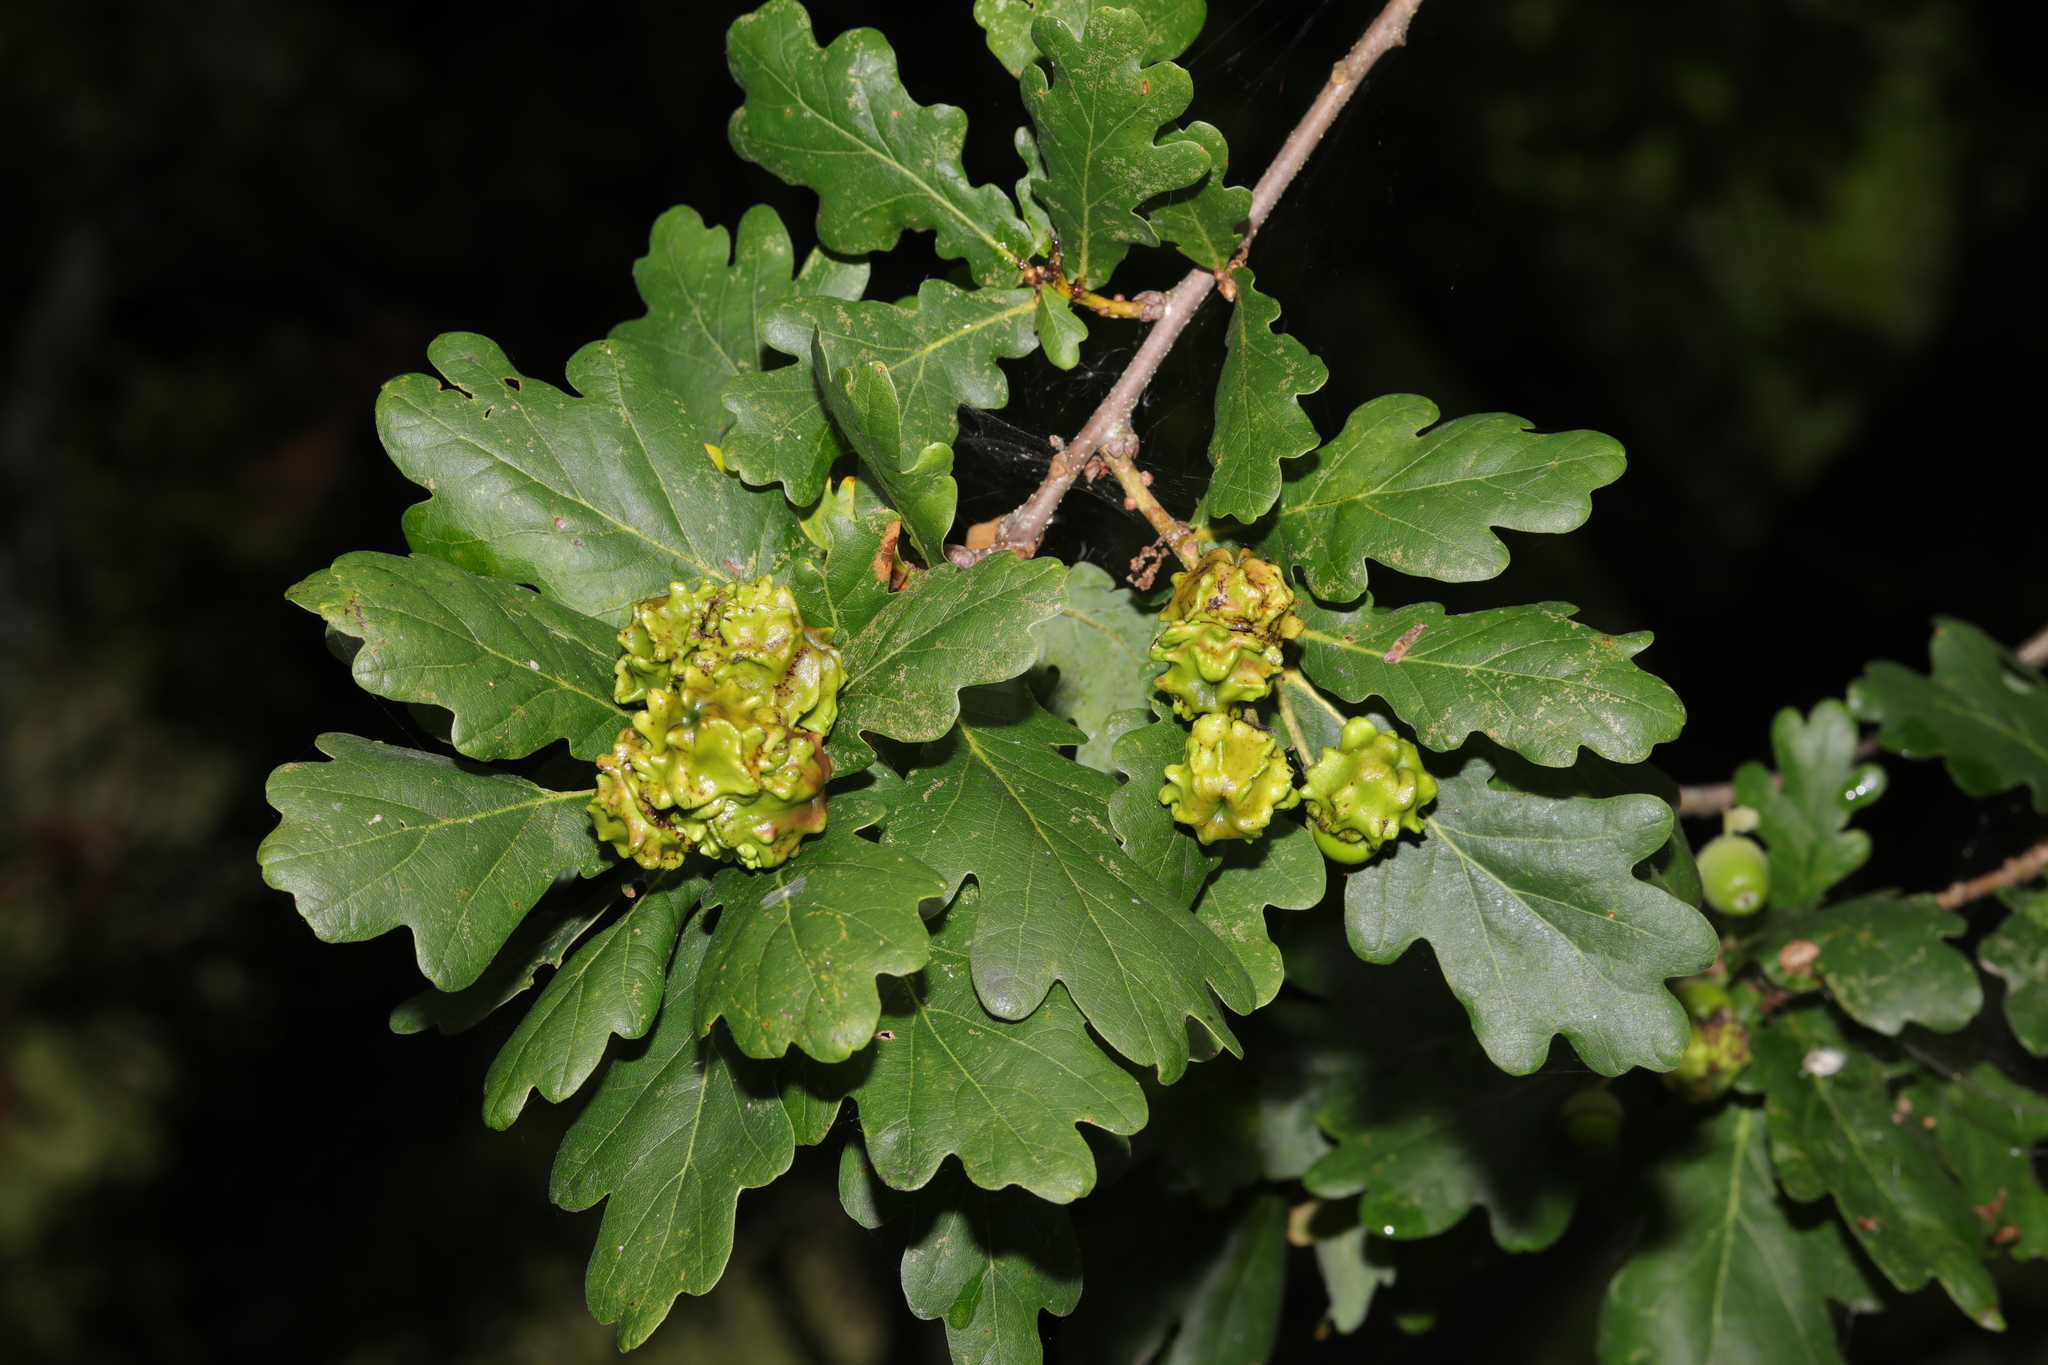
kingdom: Animalia
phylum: Arthropoda
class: Insecta
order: Hymenoptera
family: Cynipidae
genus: Andricus
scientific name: Andricus quercuscalicis
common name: Knopper gall
